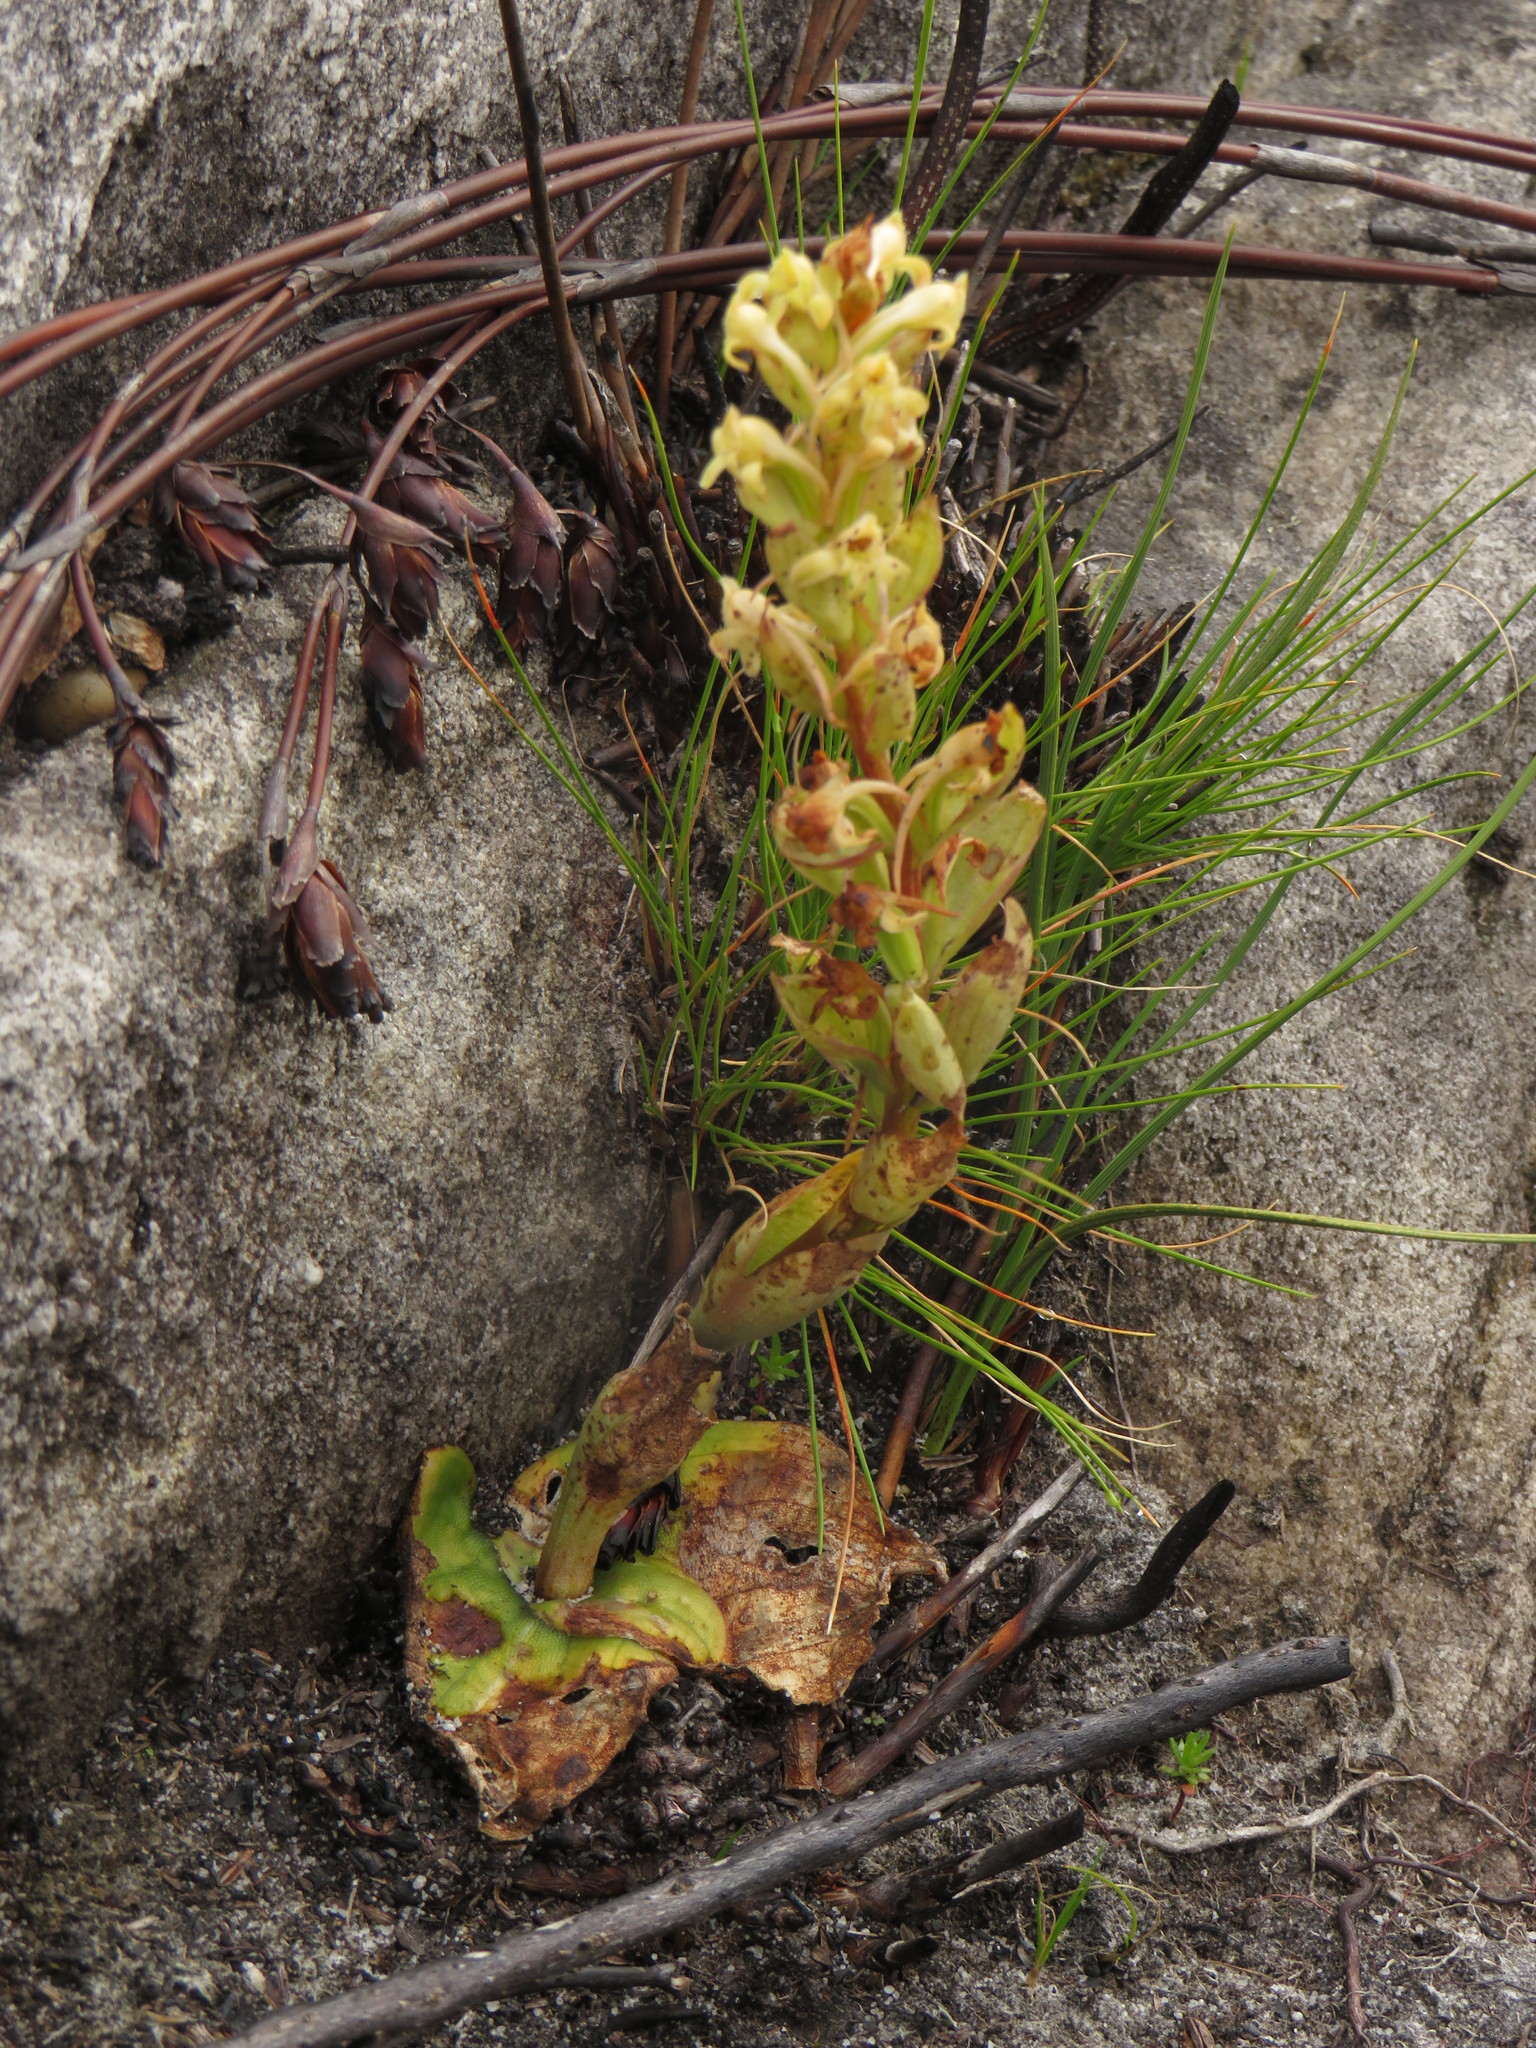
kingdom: Plantae
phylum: Tracheophyta
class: Liliopsida
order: Asparagales
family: Orchidaceae
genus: Satyrium
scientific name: Satyrium situsanguinum
